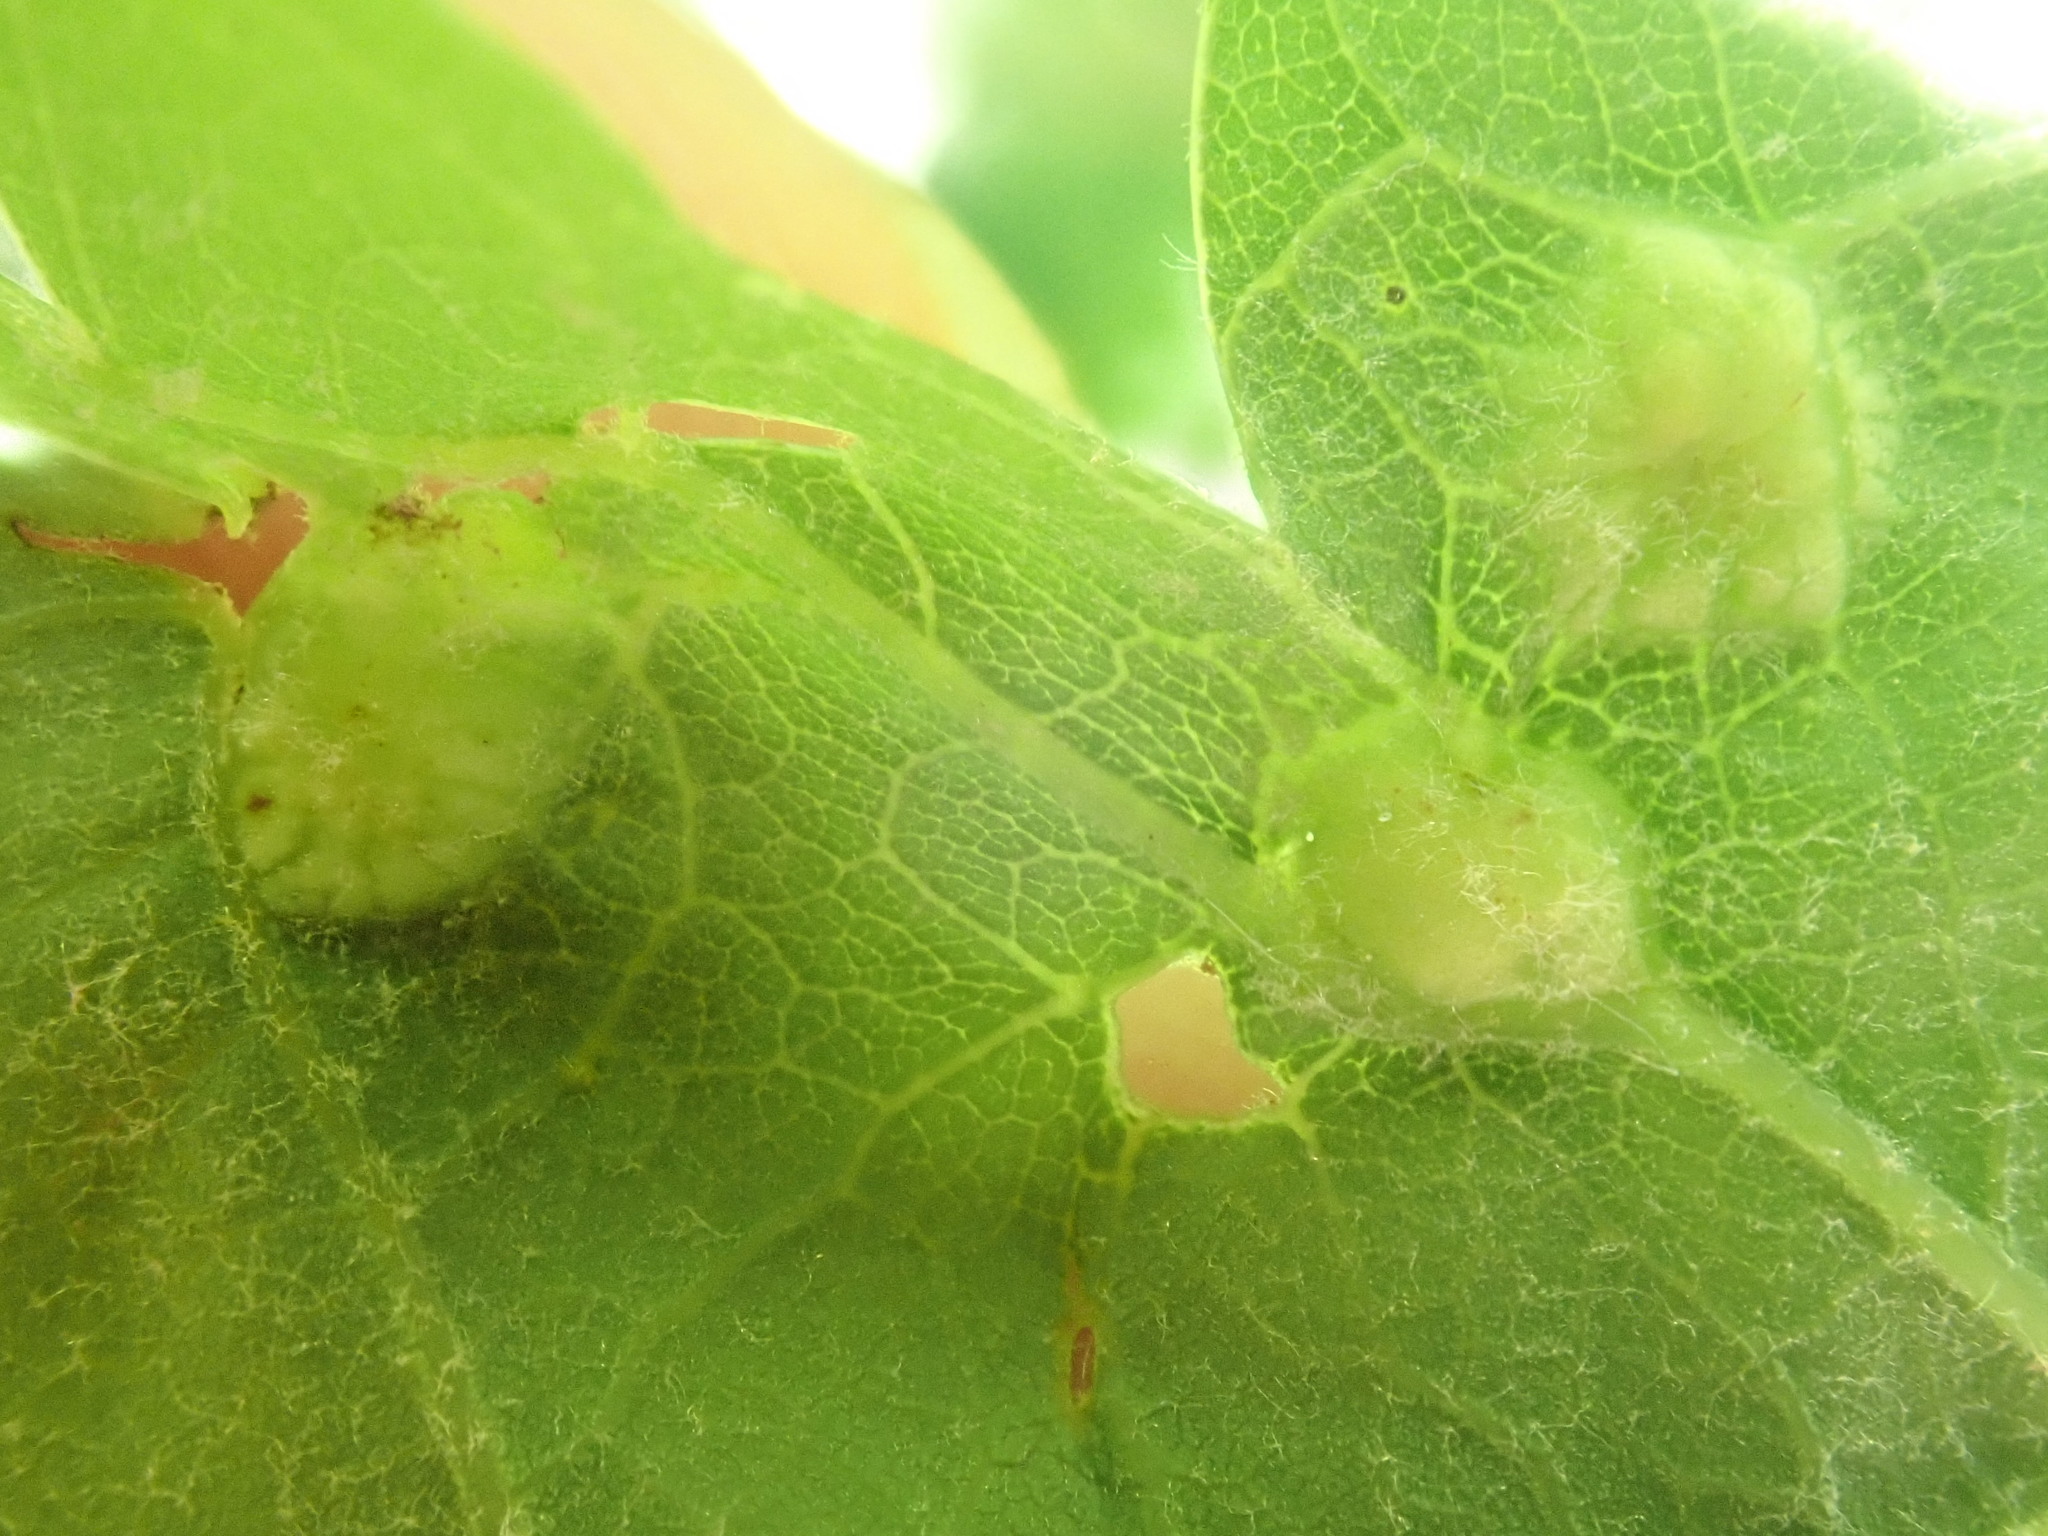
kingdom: Animalia
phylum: Arthropoda
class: Insecta
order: Hymenoptera
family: Cynipidae
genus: Callirhytis
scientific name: Callirhytis
